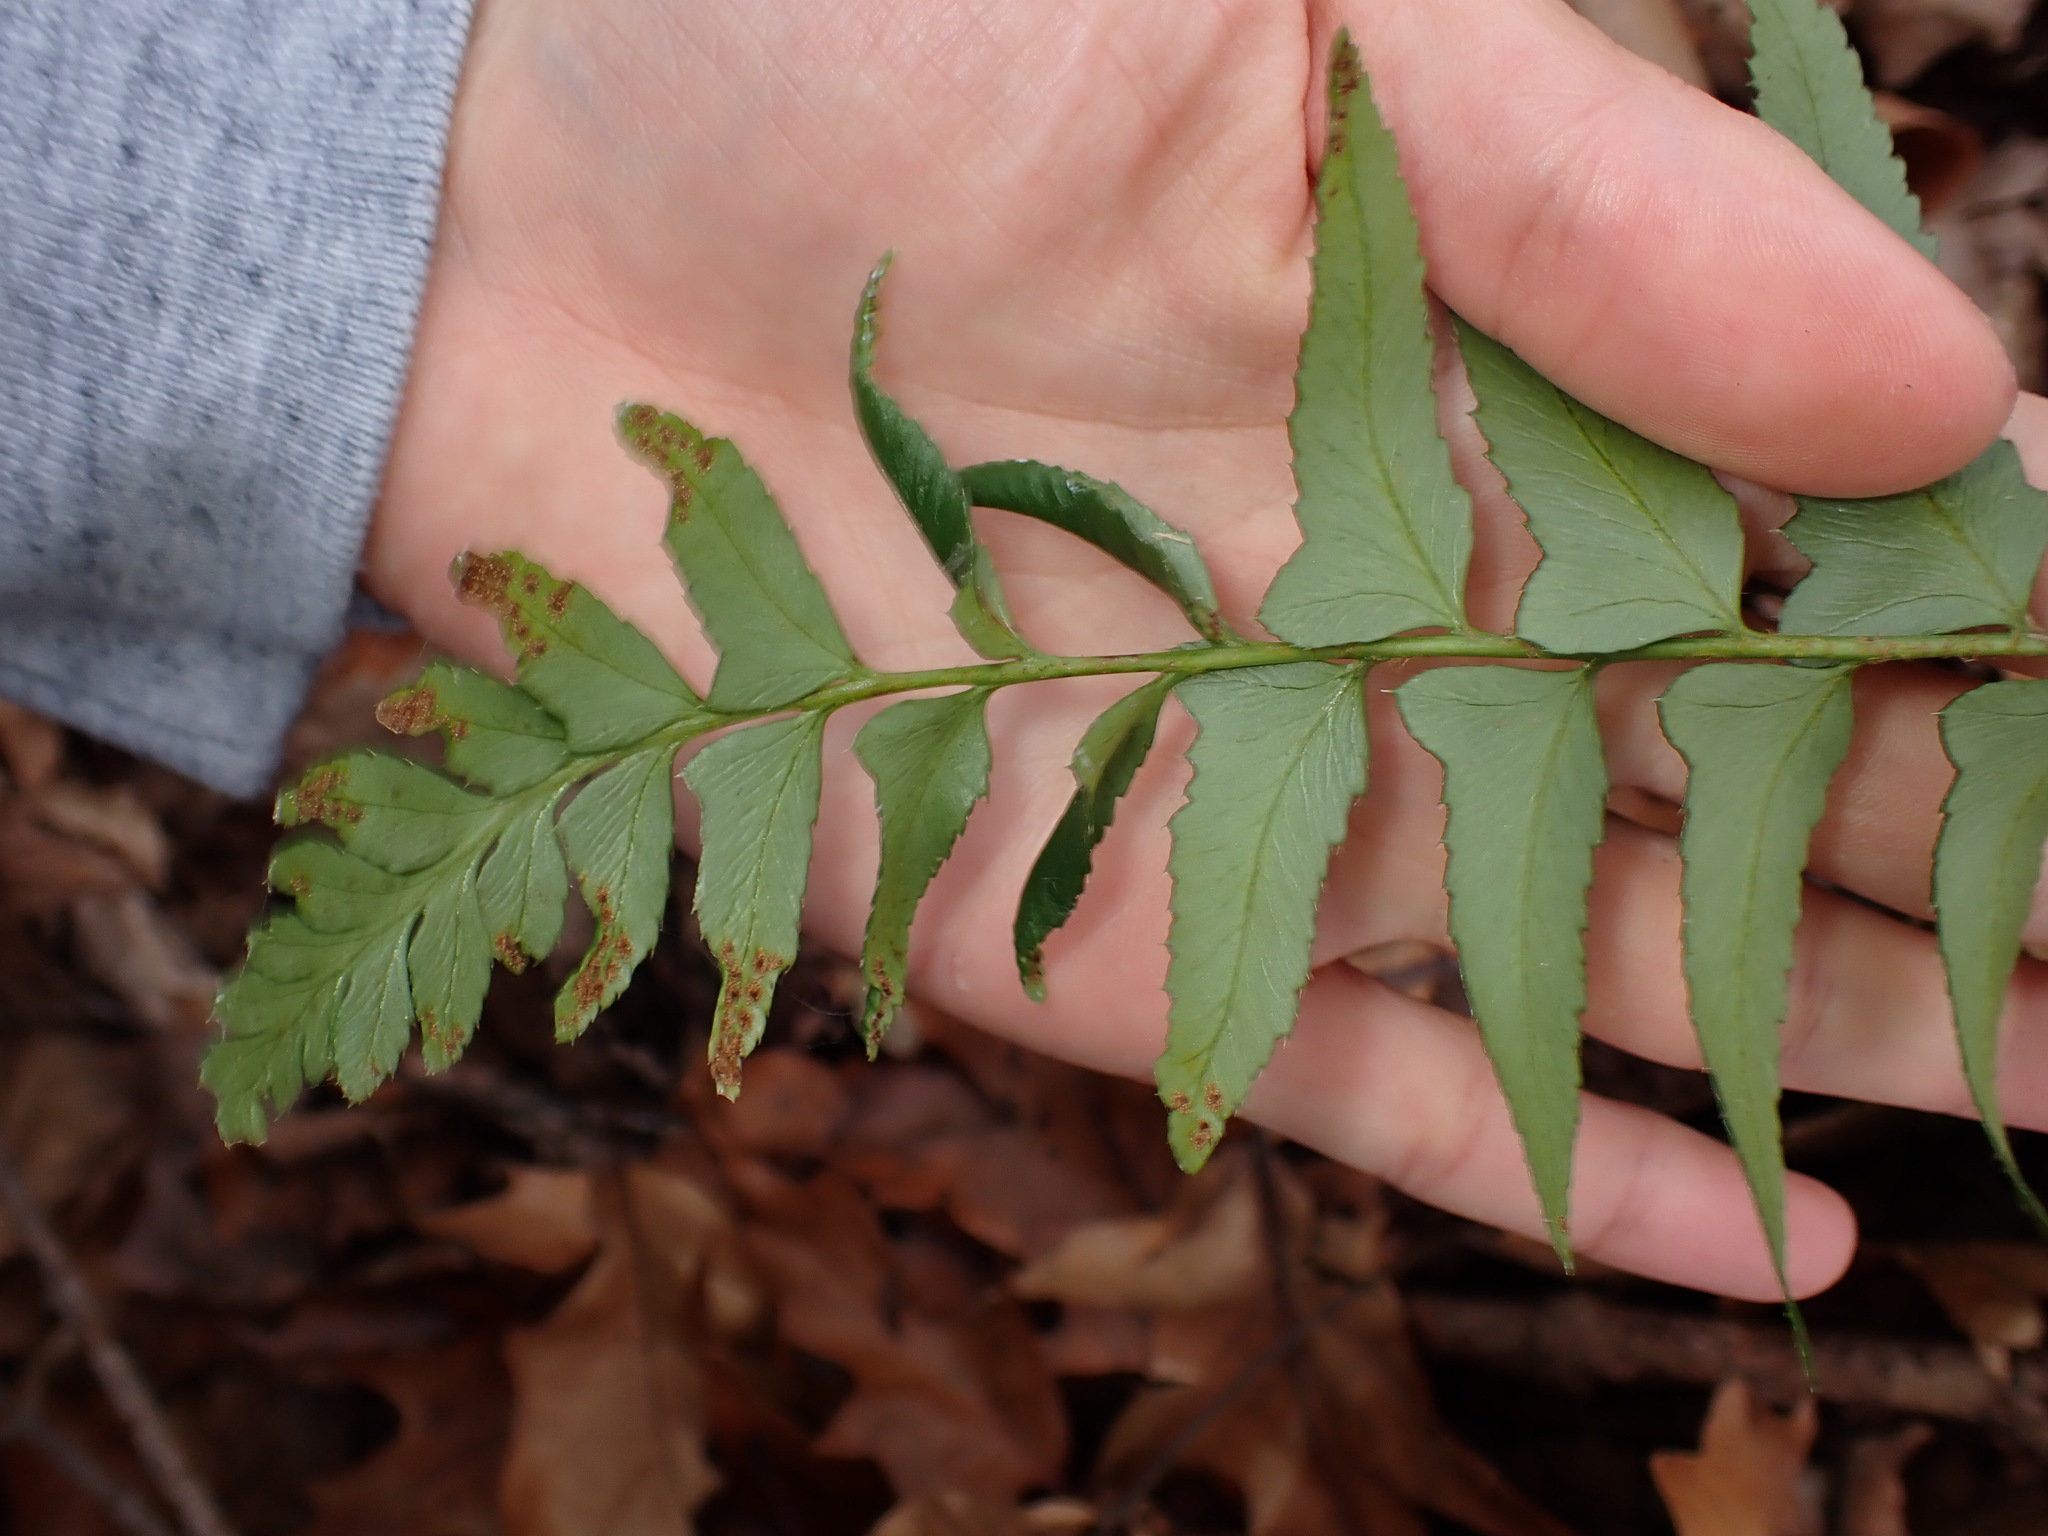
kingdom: Plantae
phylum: Tracheophyta
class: Polypodiopsida
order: Polypodiales
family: Dryopteridaceae
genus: Polystichum
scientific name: Polystichum acrostichoides
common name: Christmas fern
